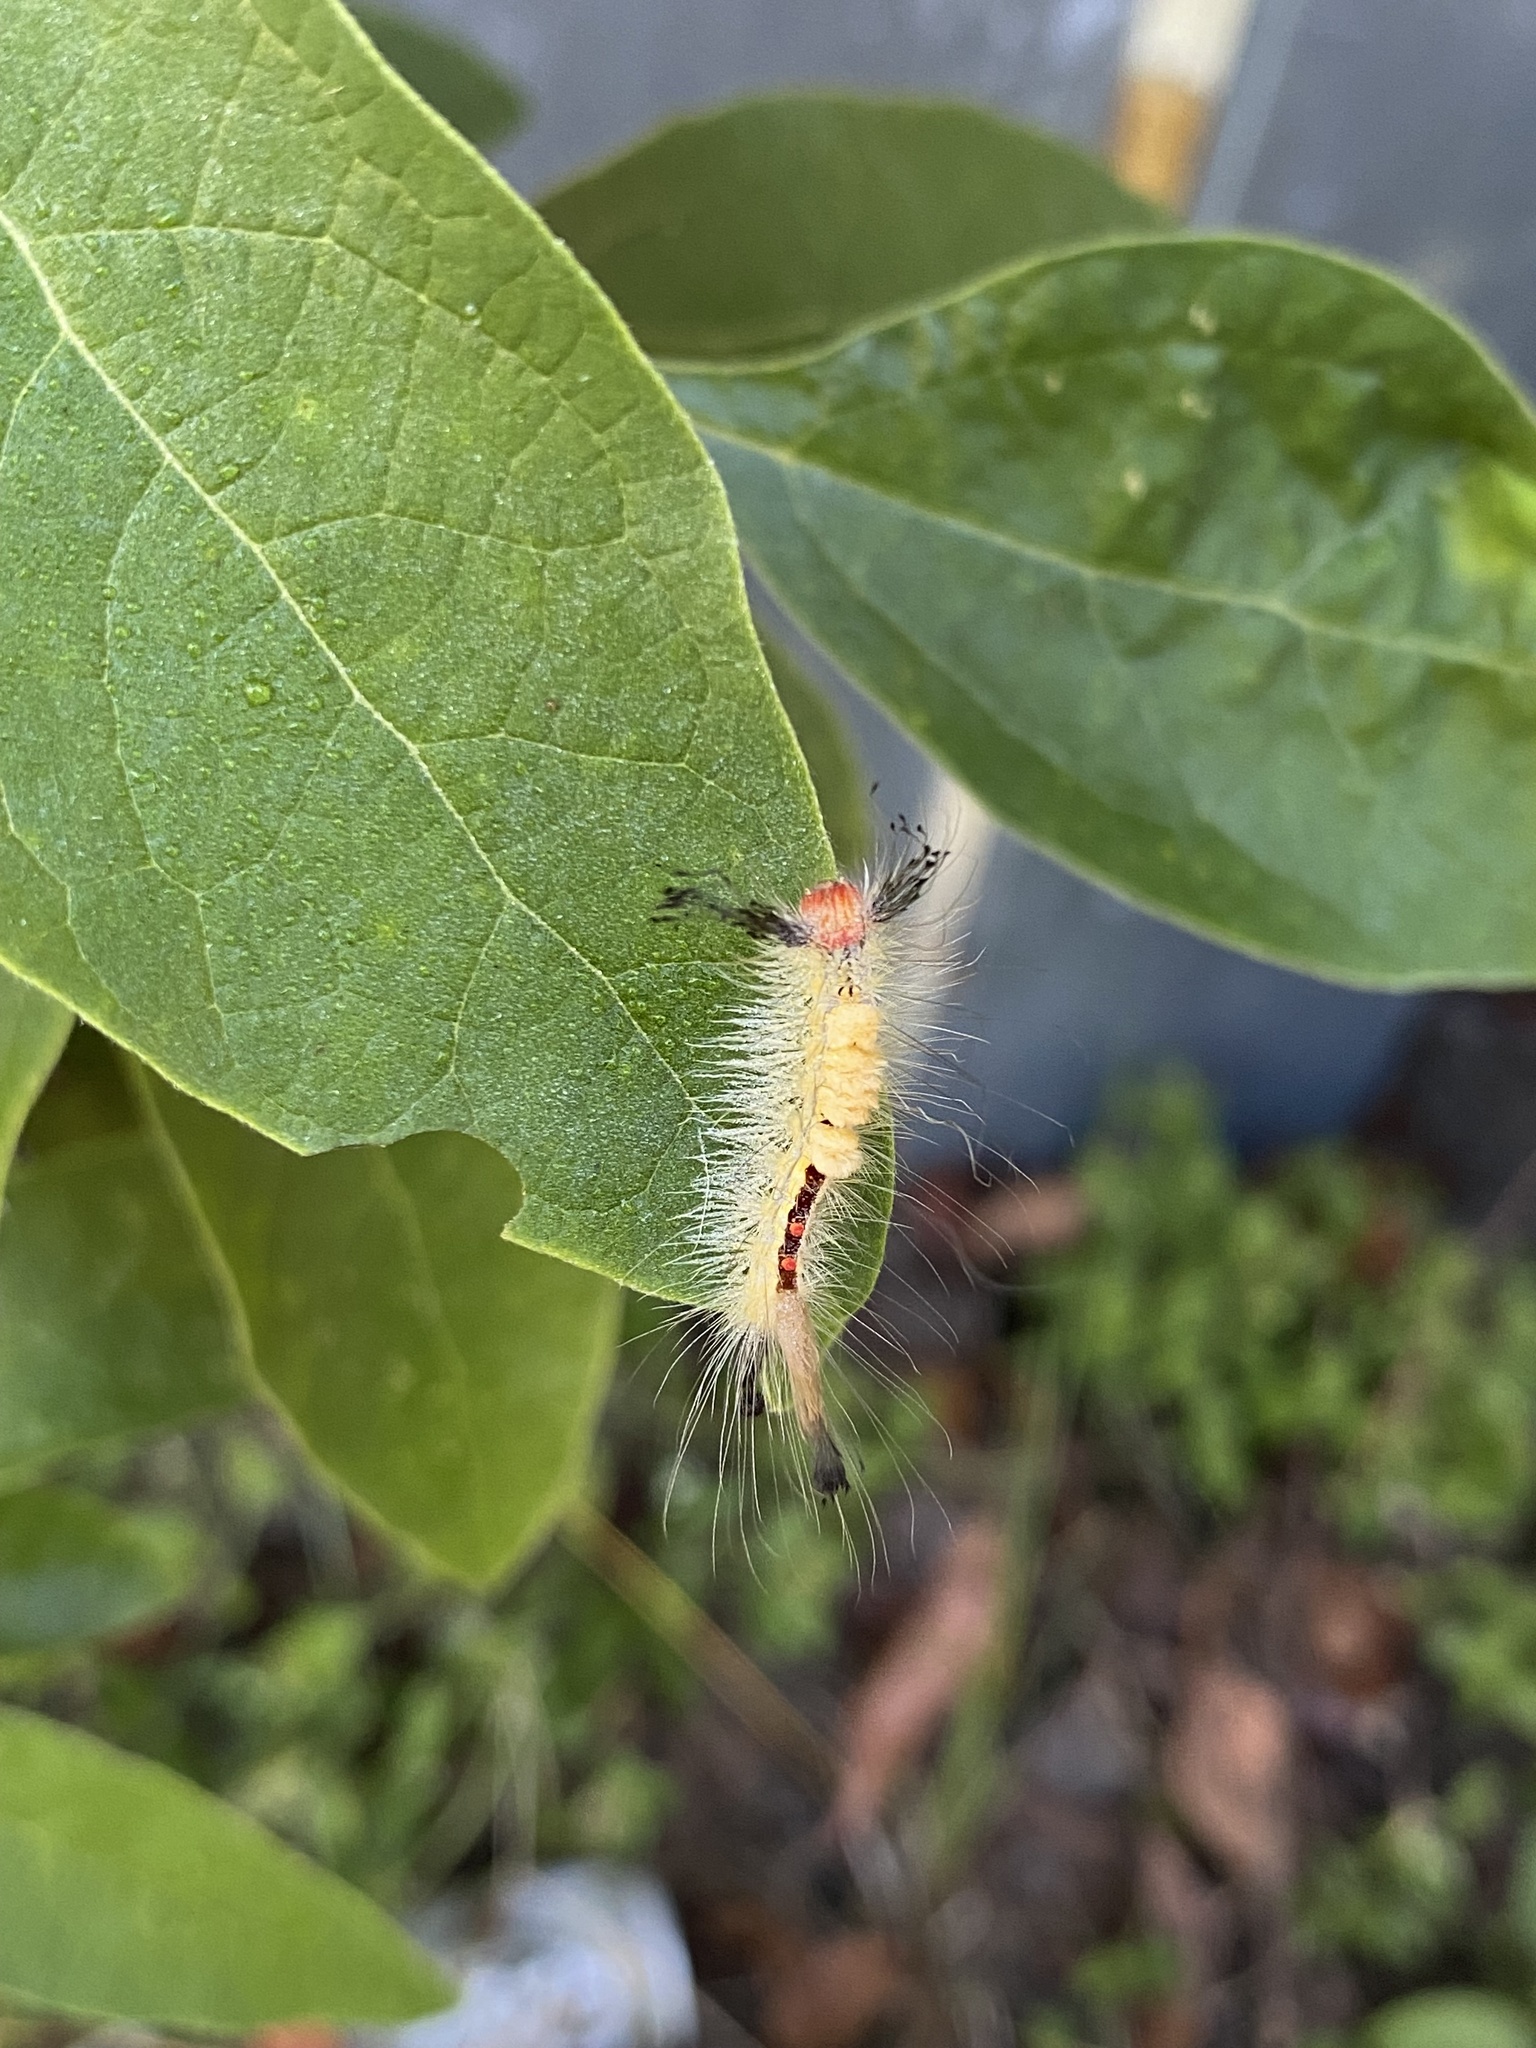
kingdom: Animalia
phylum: Arthropoda
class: Insecta
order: Lepidoptera
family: Erebidae
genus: Orgyia
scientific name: Orgyia leucostigma
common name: White-marked tussock moth
